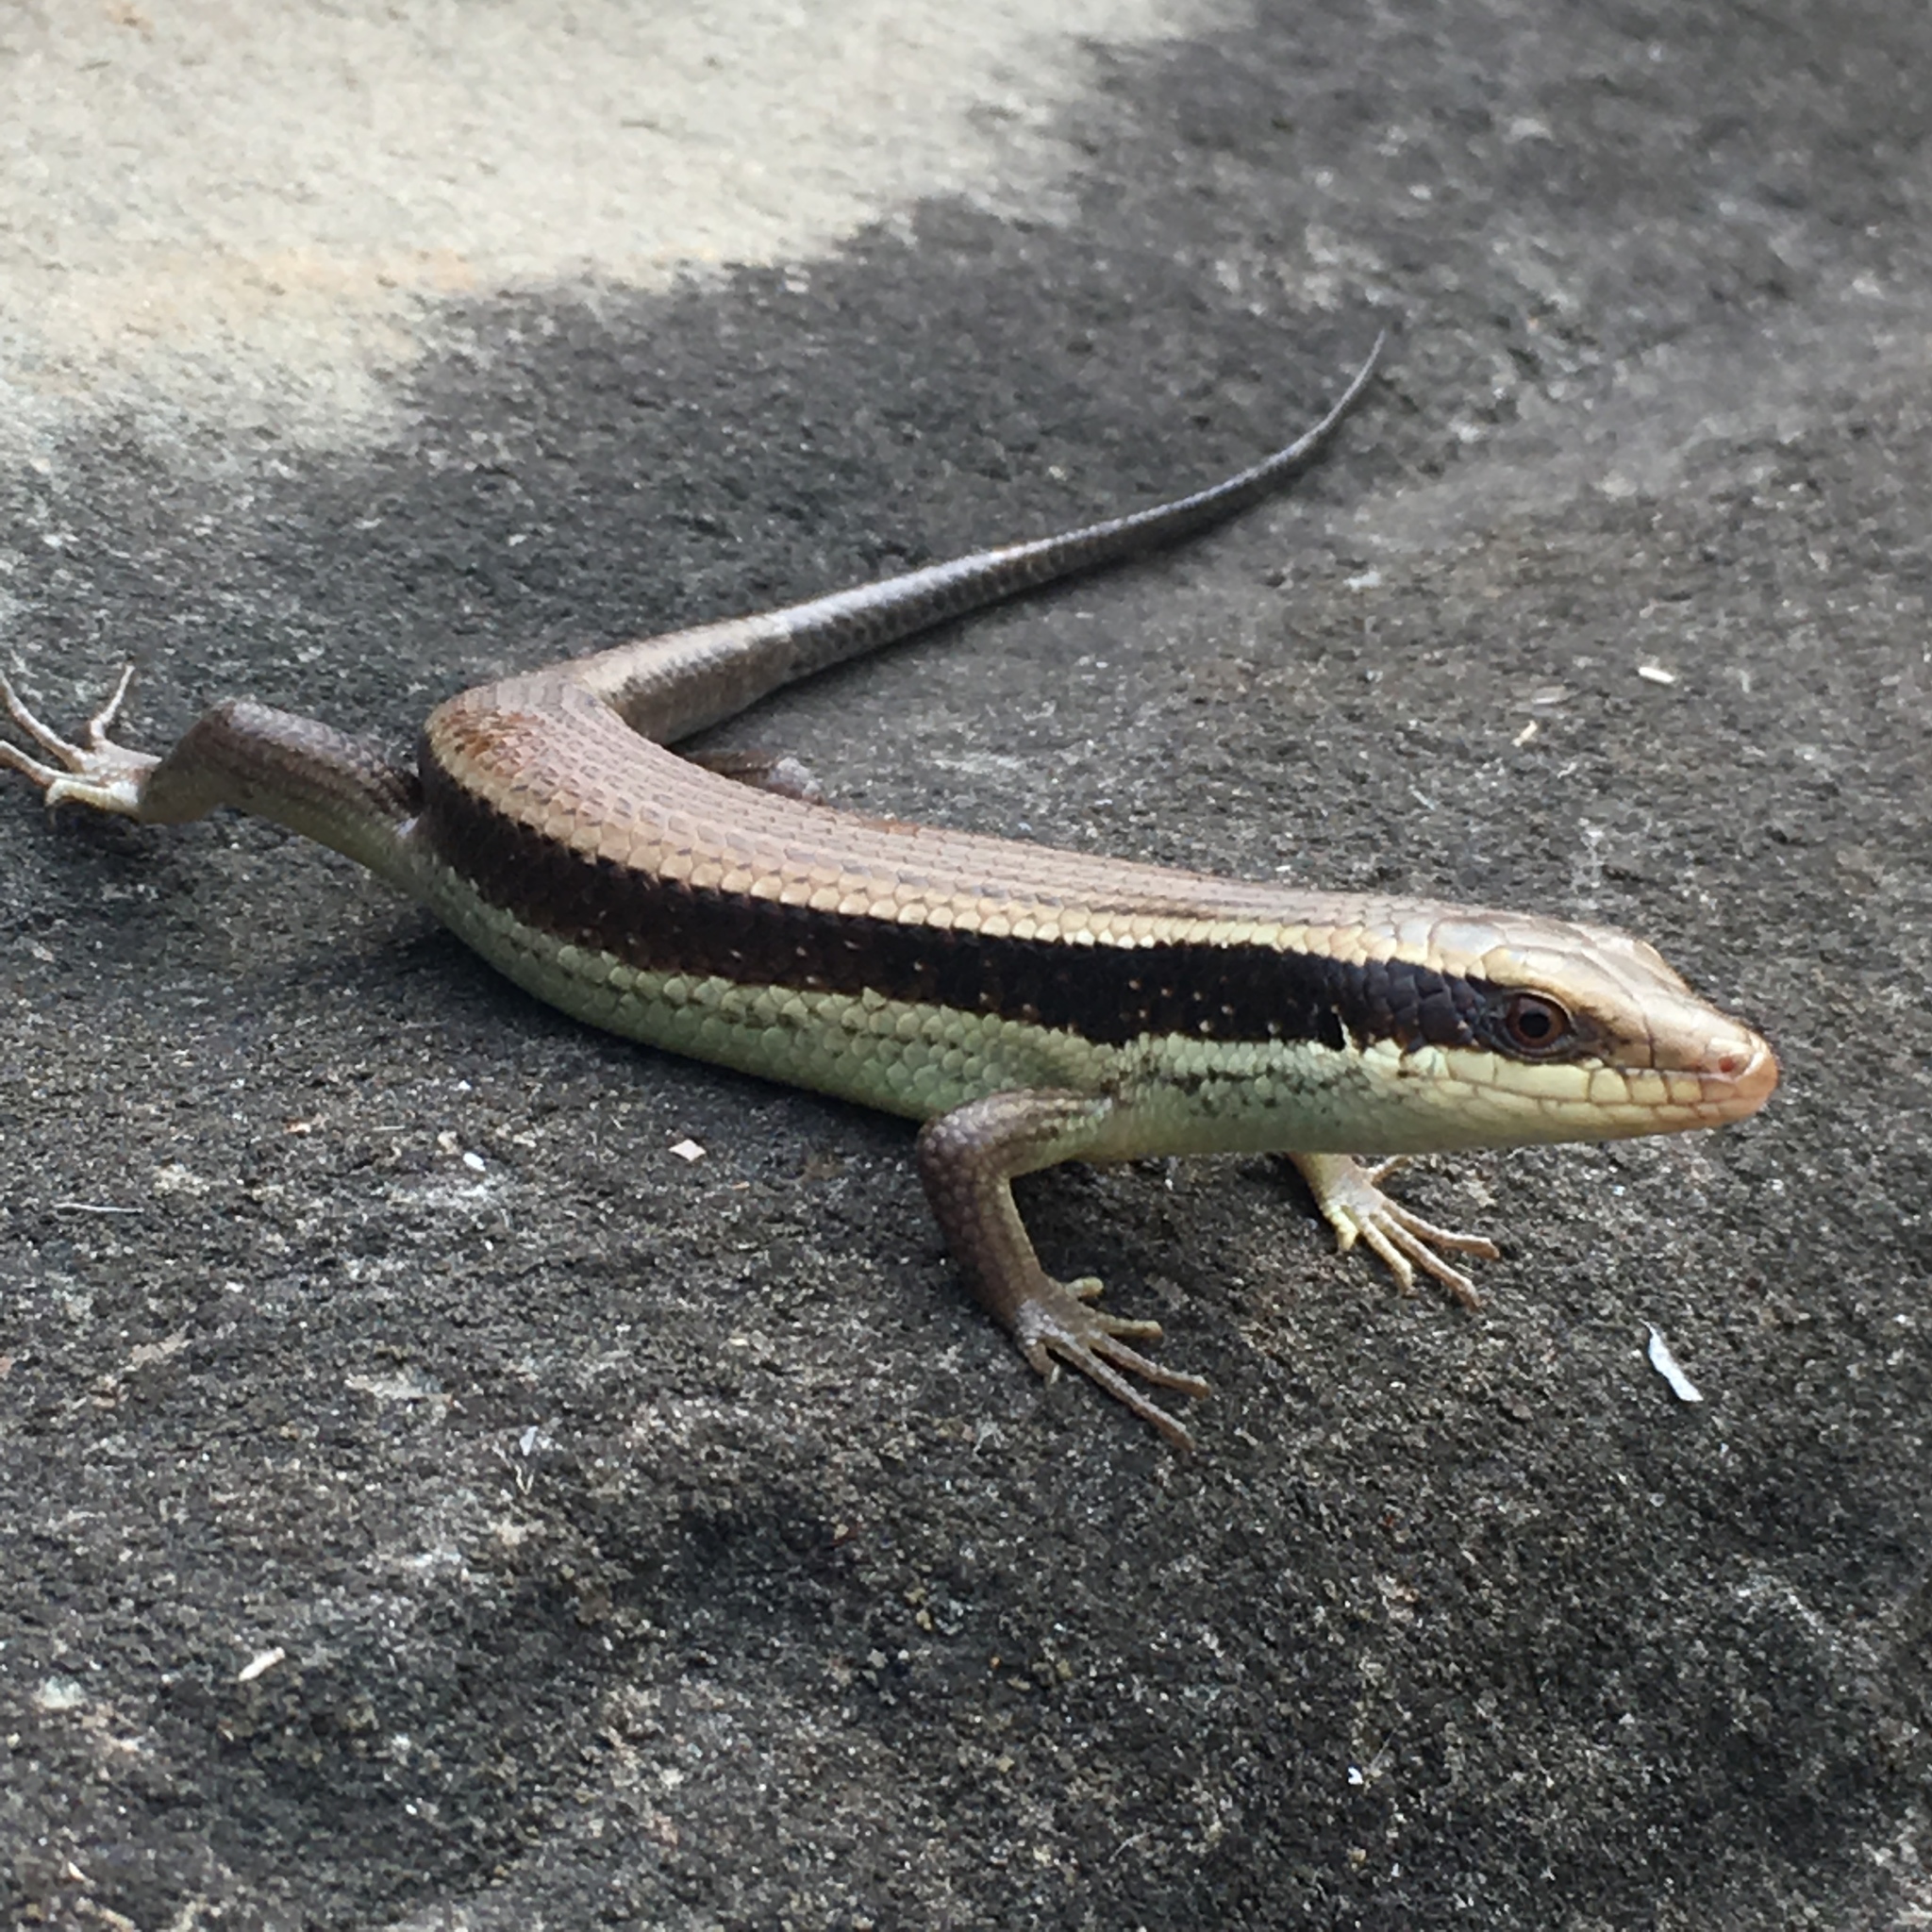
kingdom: Animalia
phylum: Chordata
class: Squamata
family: Scincidae
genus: Eutropis
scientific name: Eutropis longicaudata
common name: Long-tailed sun skink
